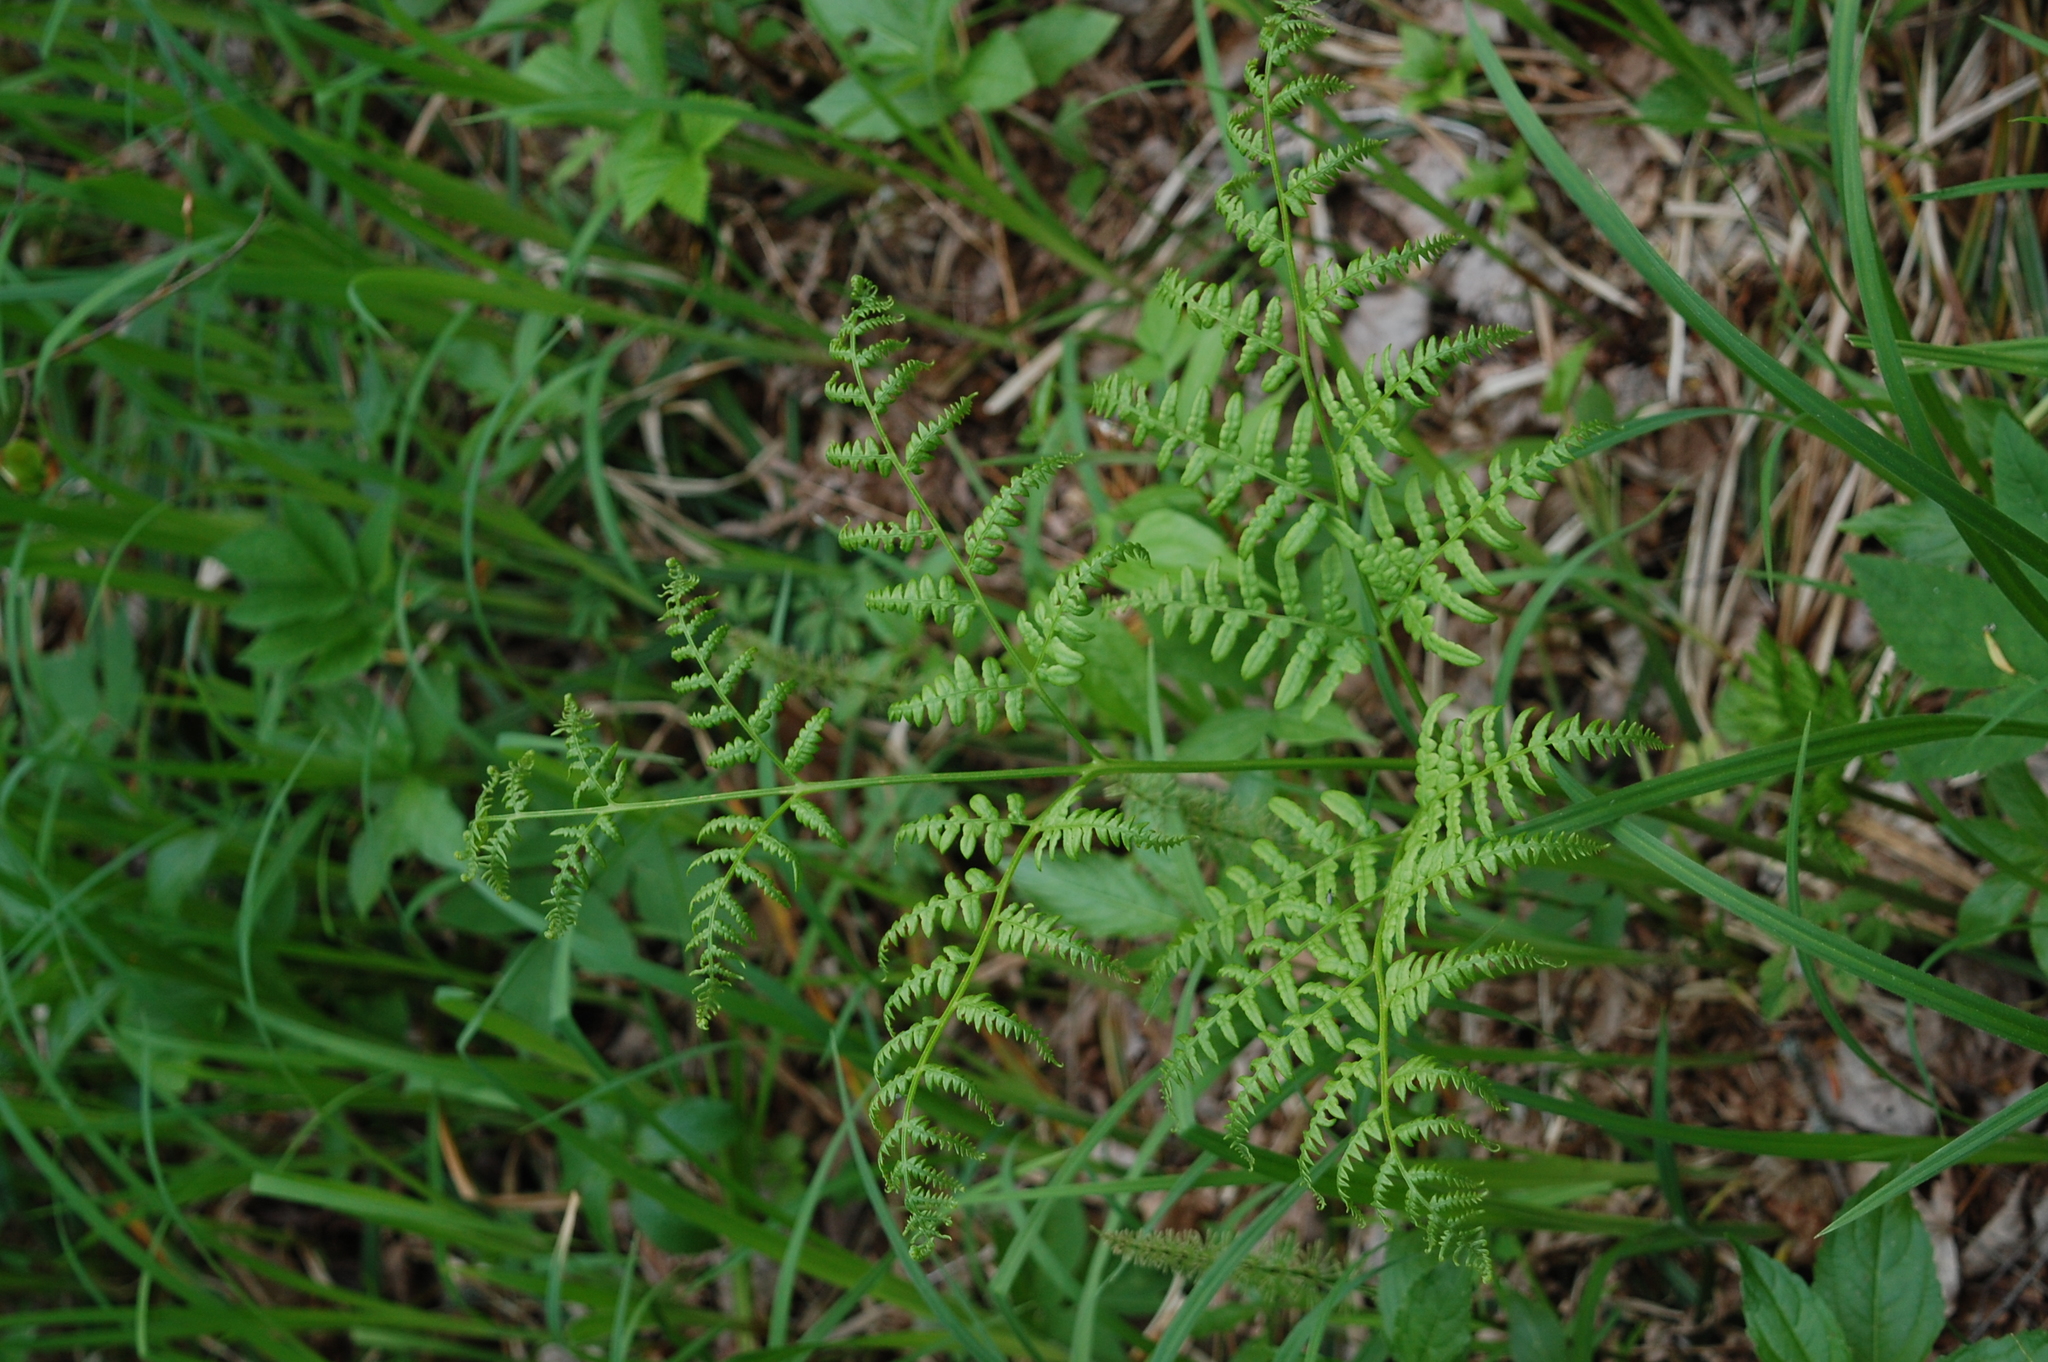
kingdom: Plantae
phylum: Tracheophyta
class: Polypodiopsida
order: Polypodiales
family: Dennstaedtiaceae
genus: Pteridium
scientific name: Pteridium aquilinum
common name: Bracken
